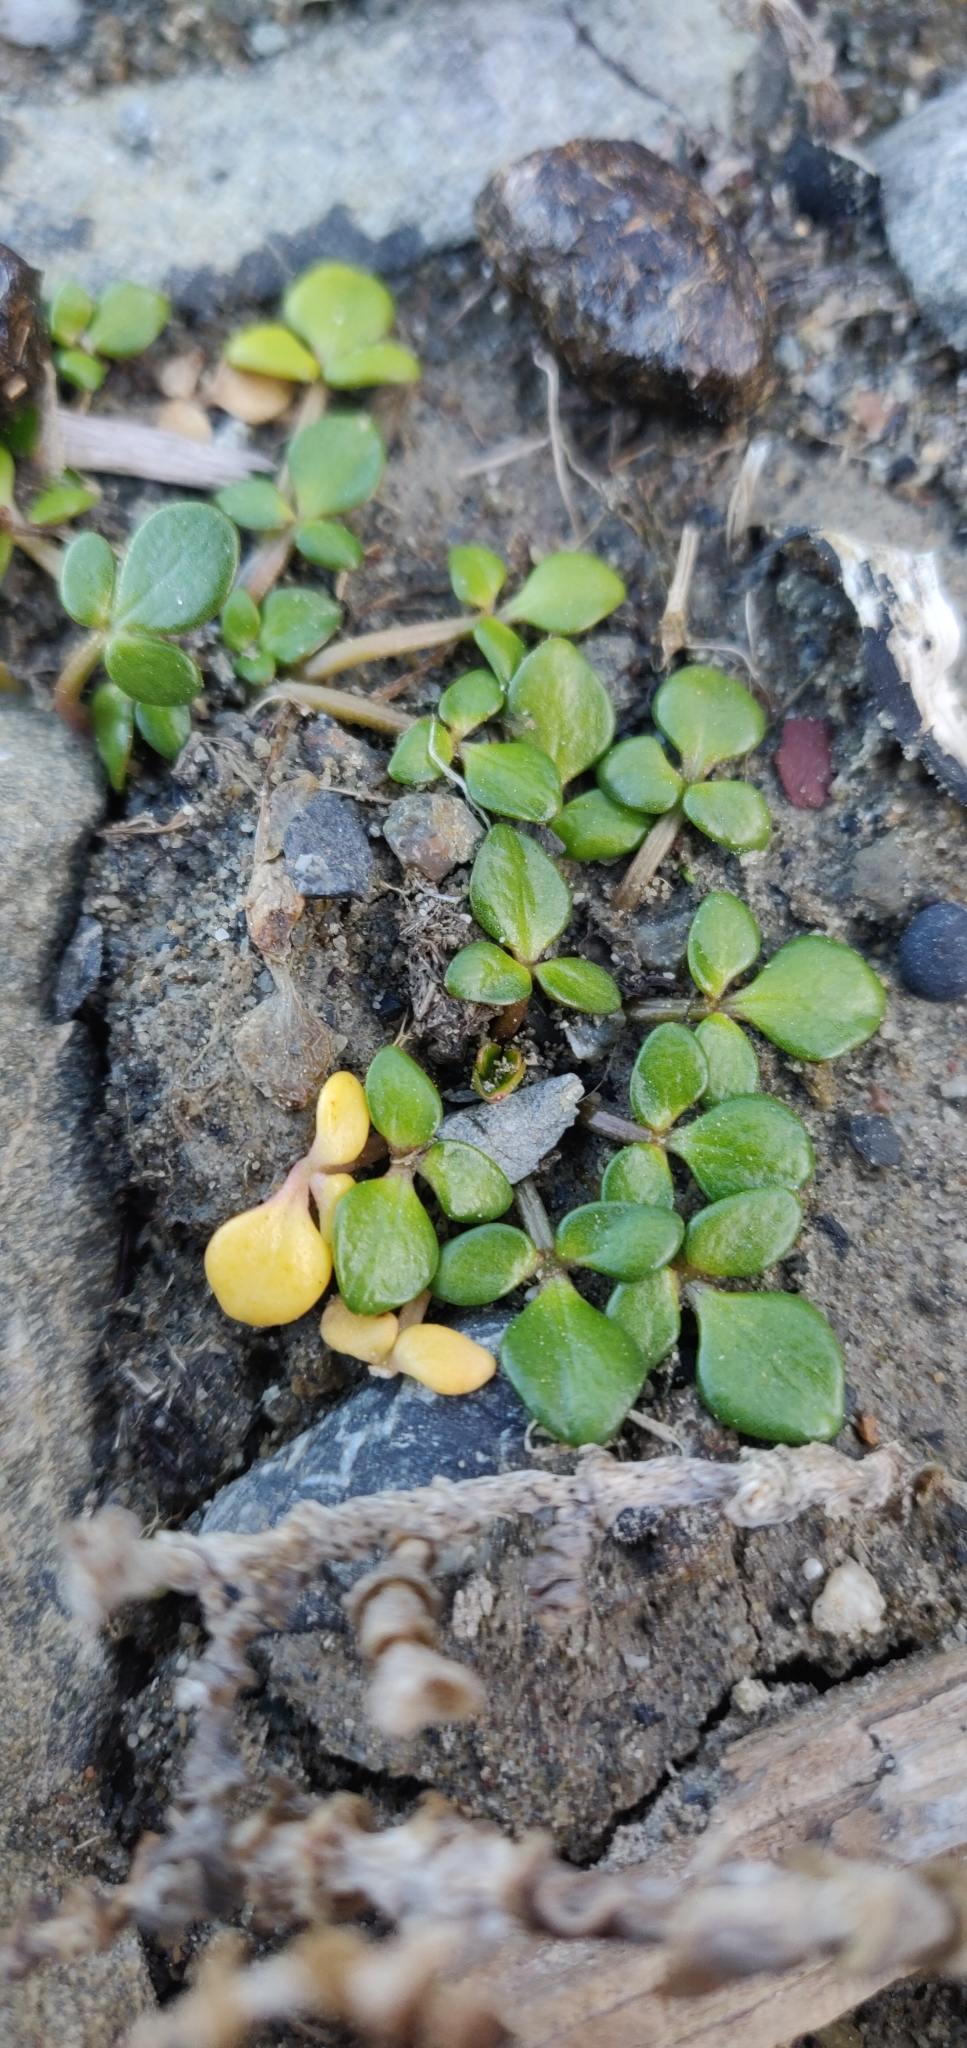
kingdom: Plantae
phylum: Tracheophyta
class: Magnoliopsida
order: Ranunculales
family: Ranunculaceae
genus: Ranunculus
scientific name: Ranunculus acaulis
